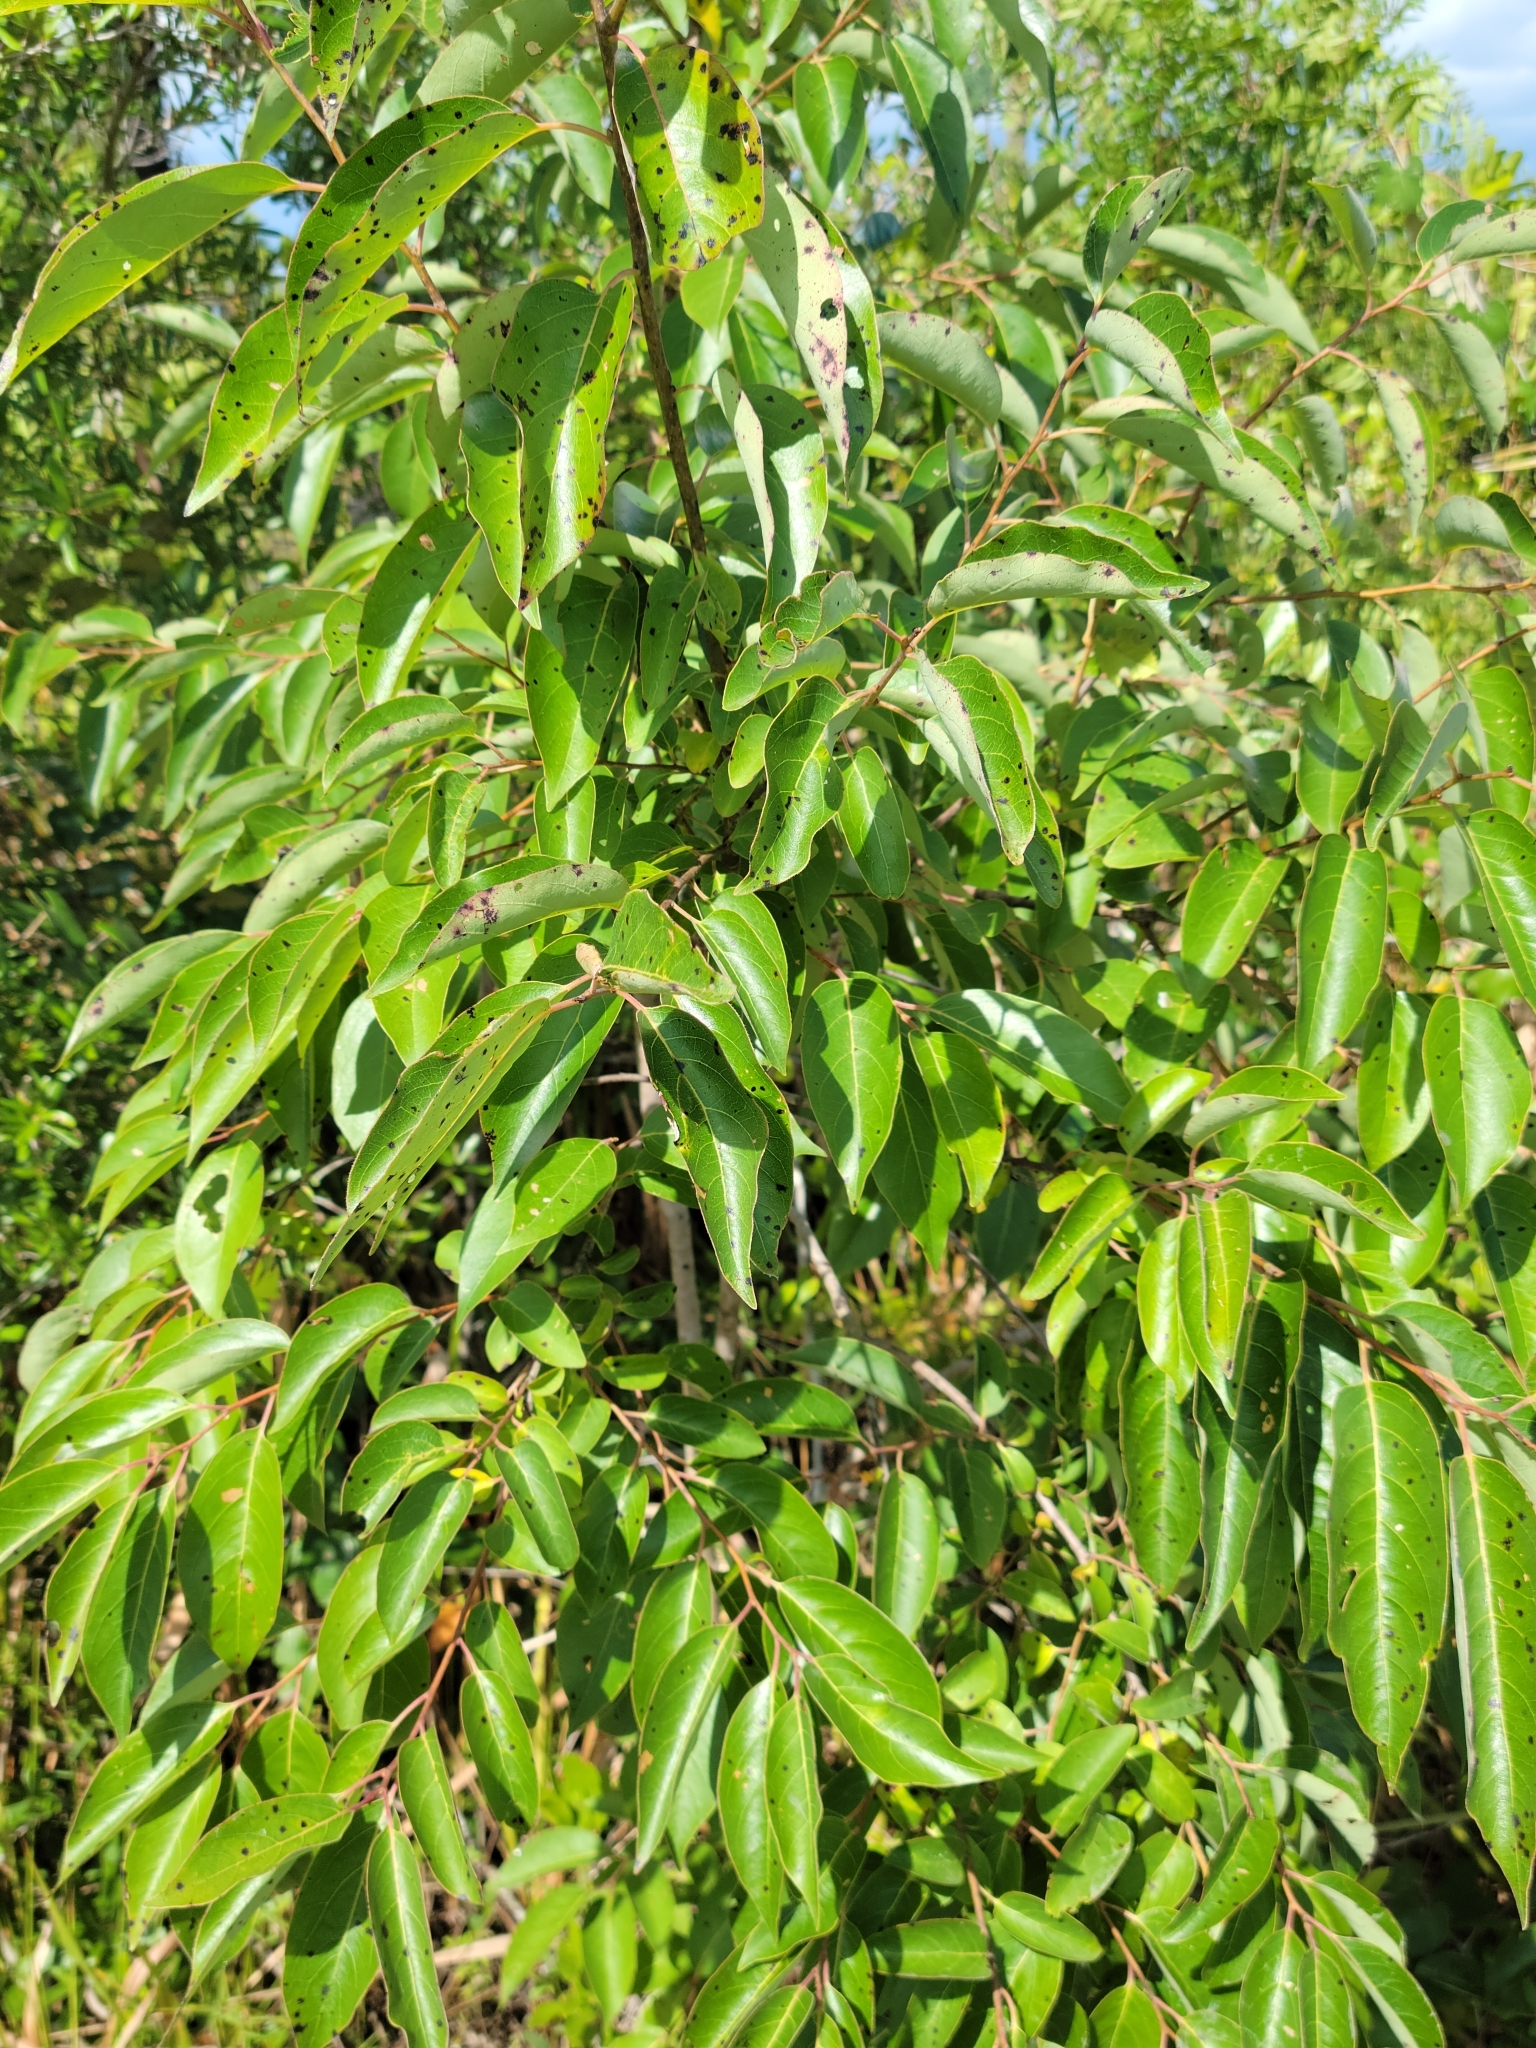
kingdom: Plantae
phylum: Tracheophyta
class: Magnoliopsida
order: Ericales
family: Ebenaceae
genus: Diospyros
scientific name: Diospyros virginiana
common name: Persimmon
